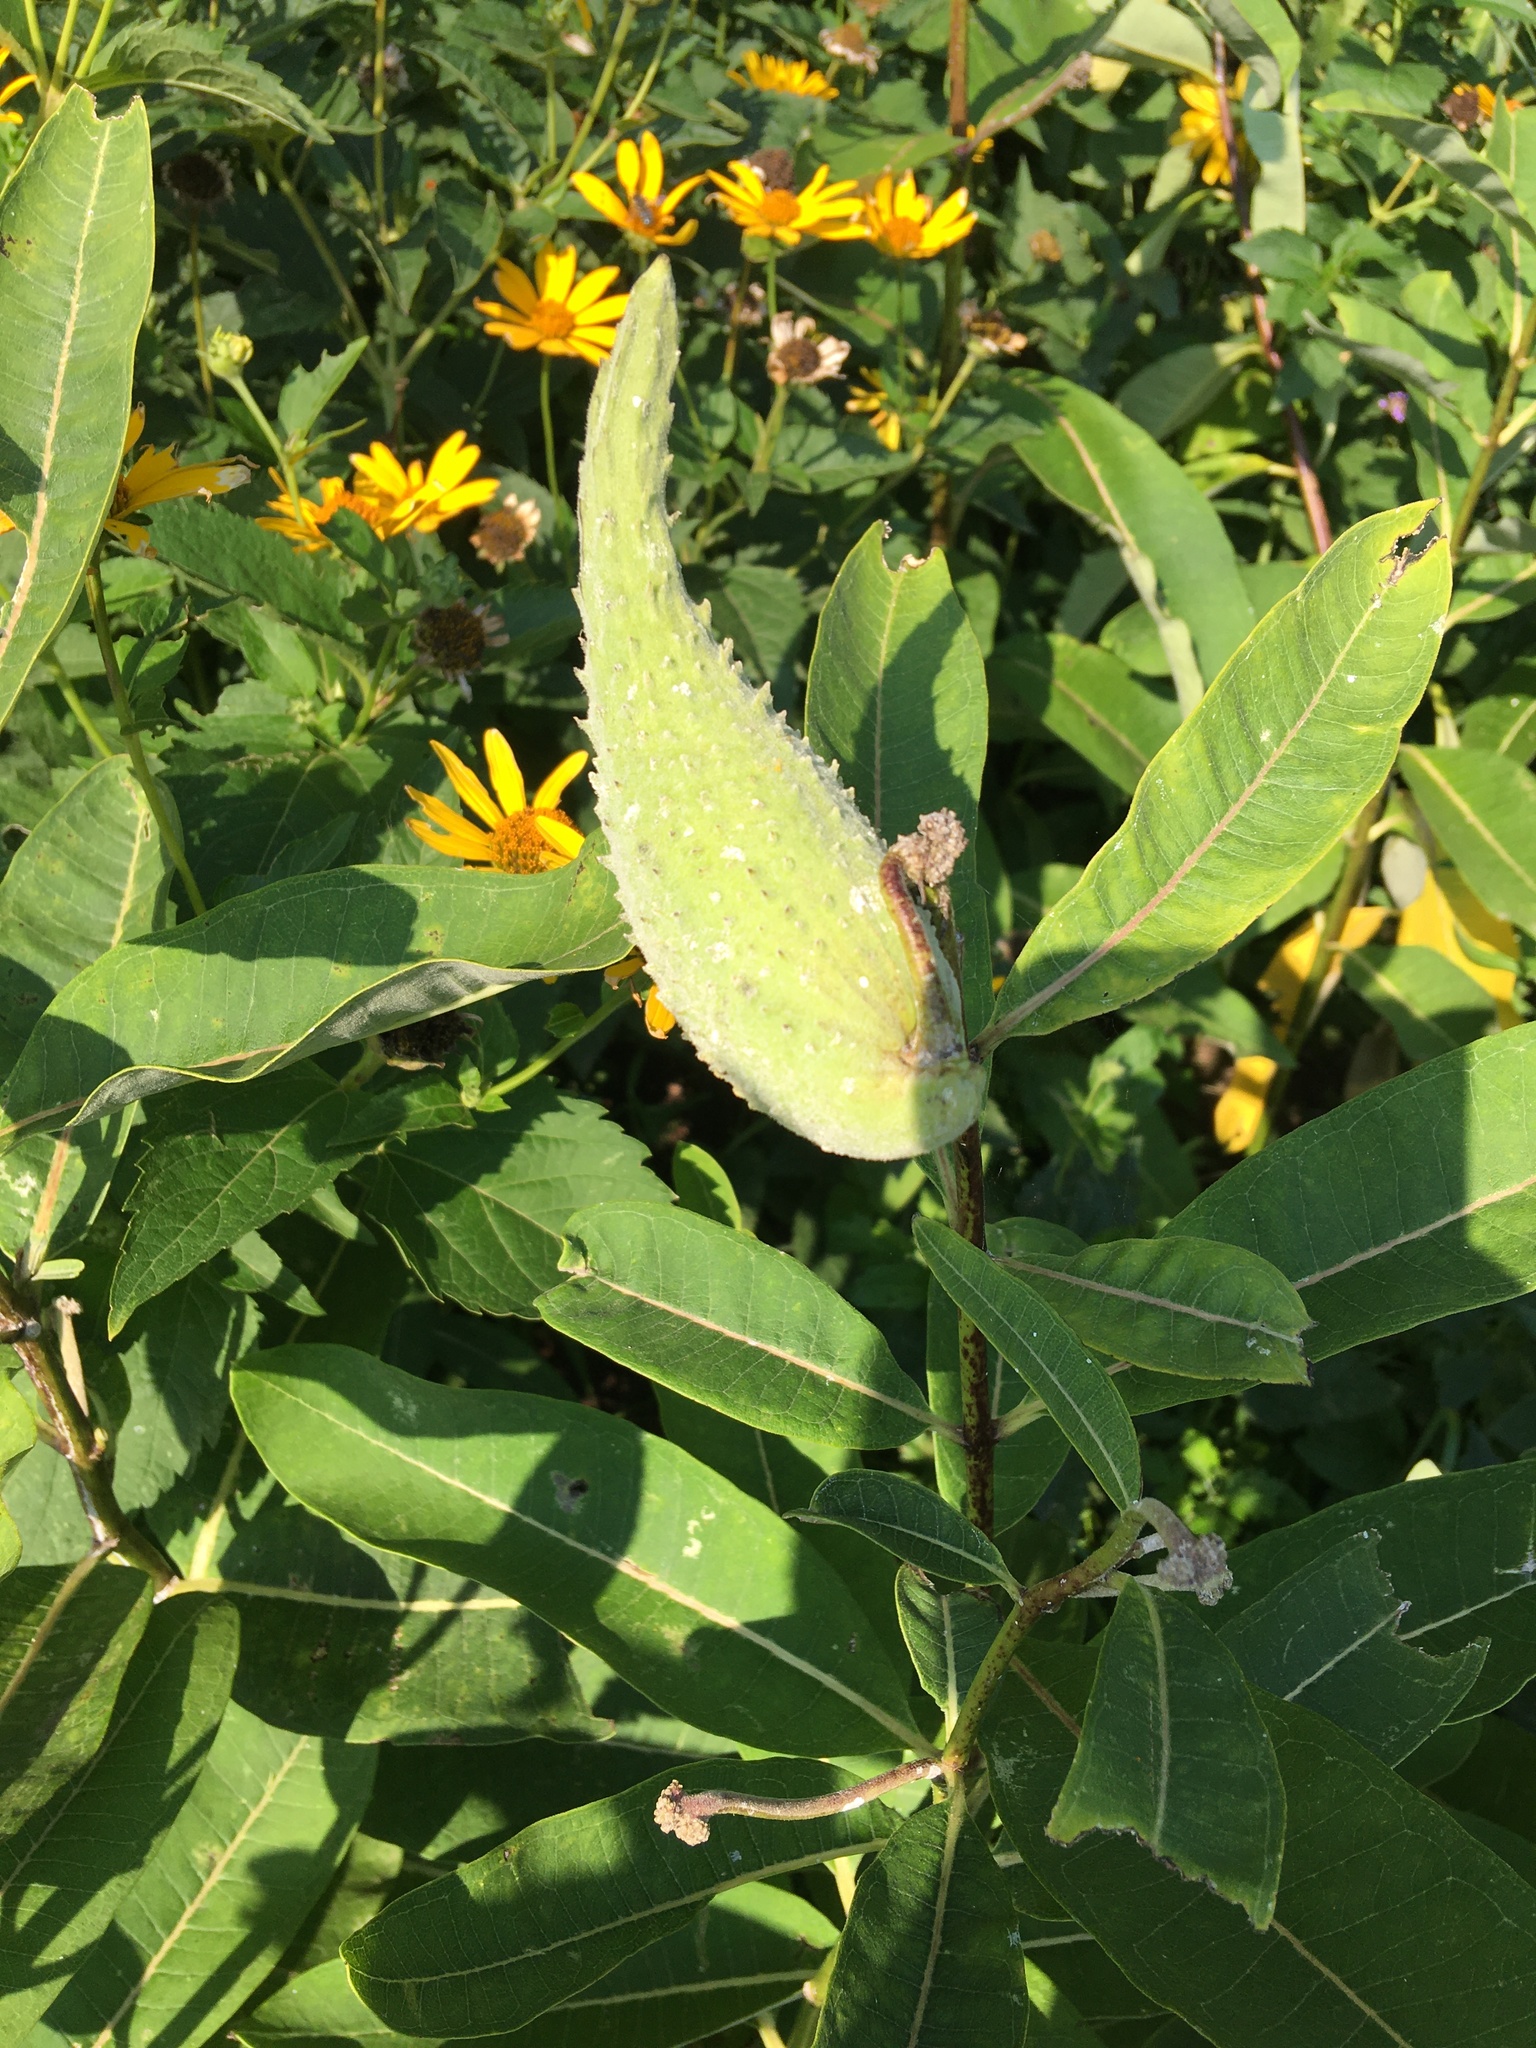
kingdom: Plantae
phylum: Tracheophyta
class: Magnoliopsida
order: Gentianales
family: Apocynaceae
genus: Asclepias
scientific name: Asclepias syriaca
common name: Common milkweed
